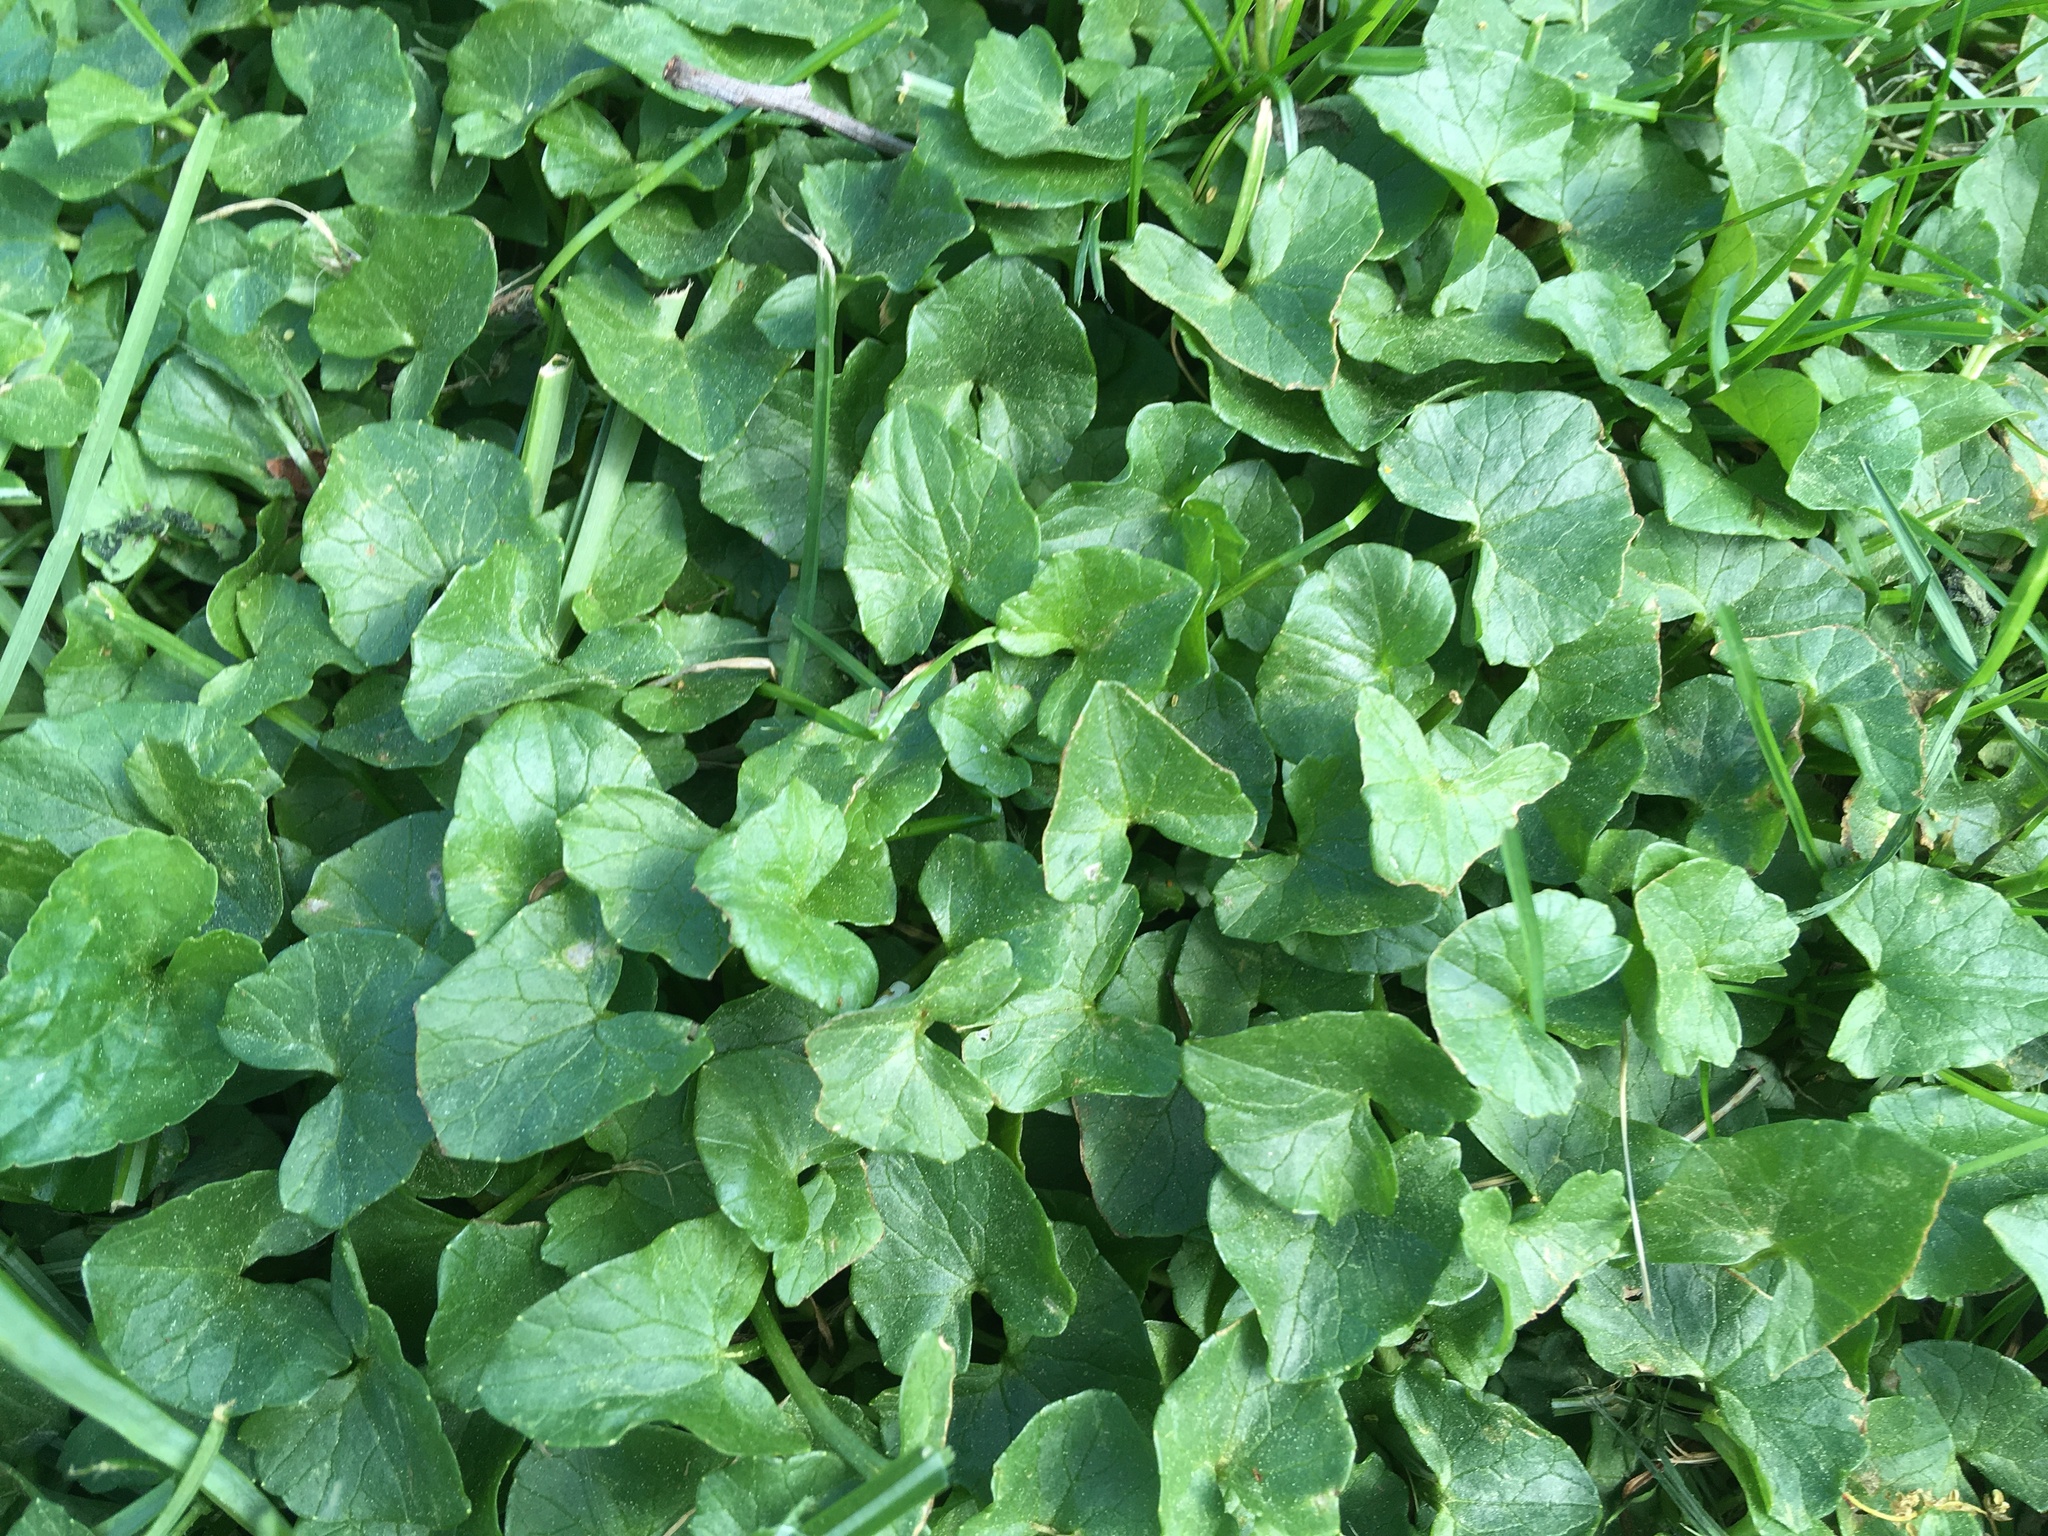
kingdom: Plantae
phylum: Tracheophyta
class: Magnoliopsida
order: Ranunculales
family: Ranunculaceae
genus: Ficaria
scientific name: Ficaria verna
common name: Lesser celandine
